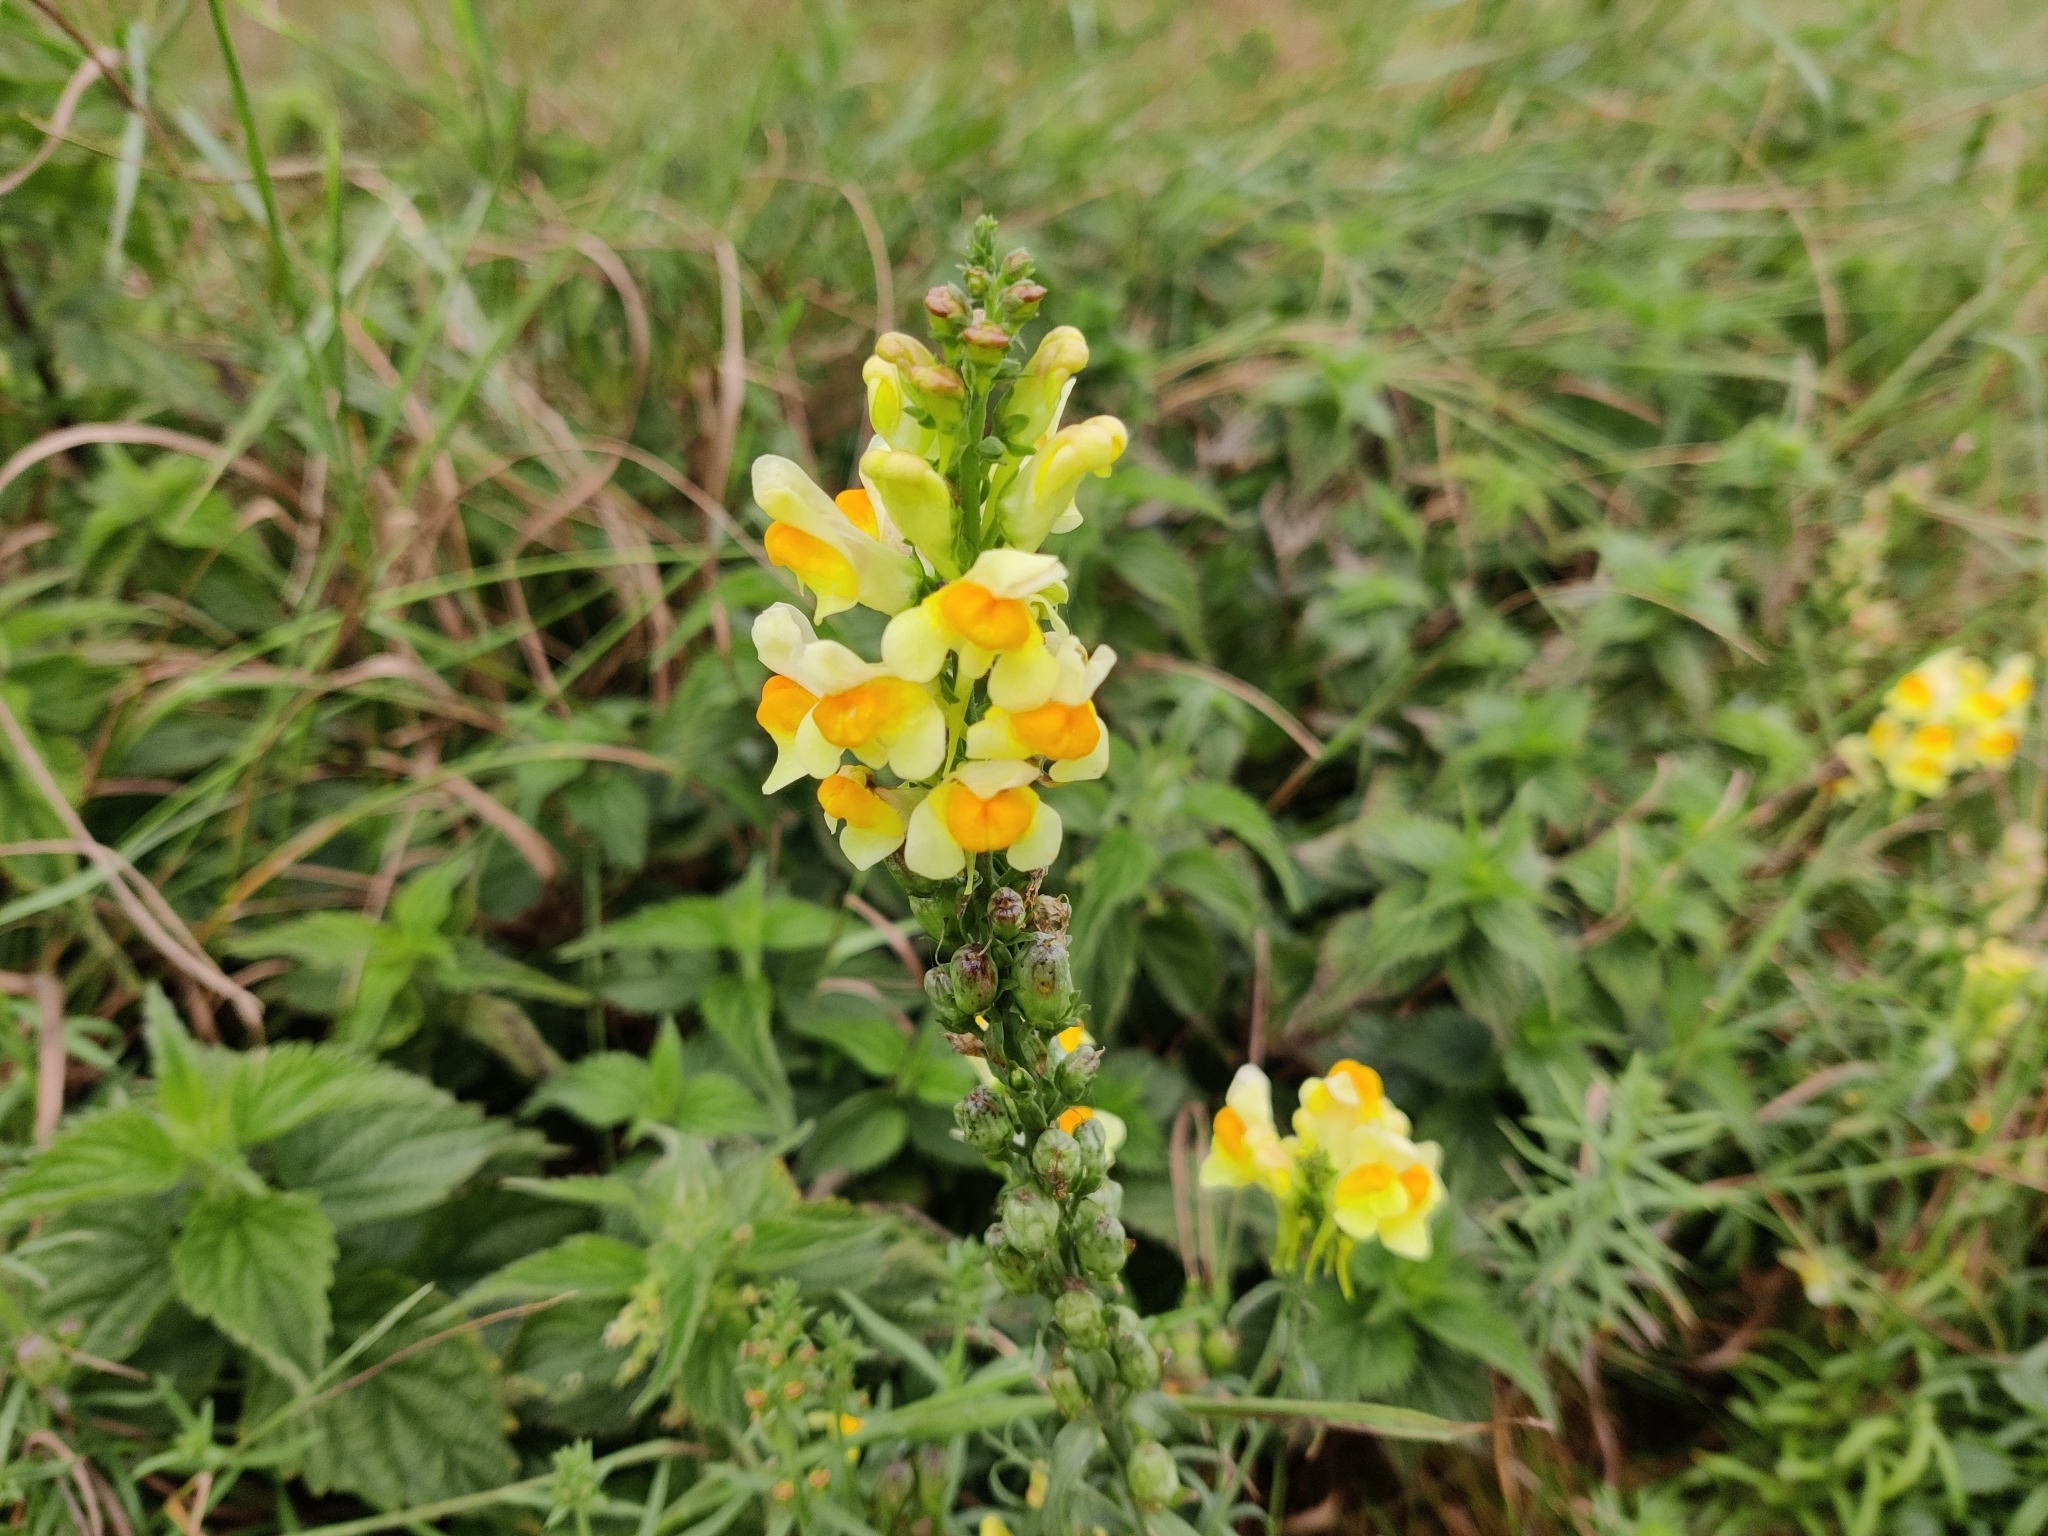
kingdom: Plantae
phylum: Tracheophyta
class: Magnoliopsida
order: Lamiales
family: Plantaginaceae
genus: Linaria
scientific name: Linaria vulgaris
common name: Butter and eggs
